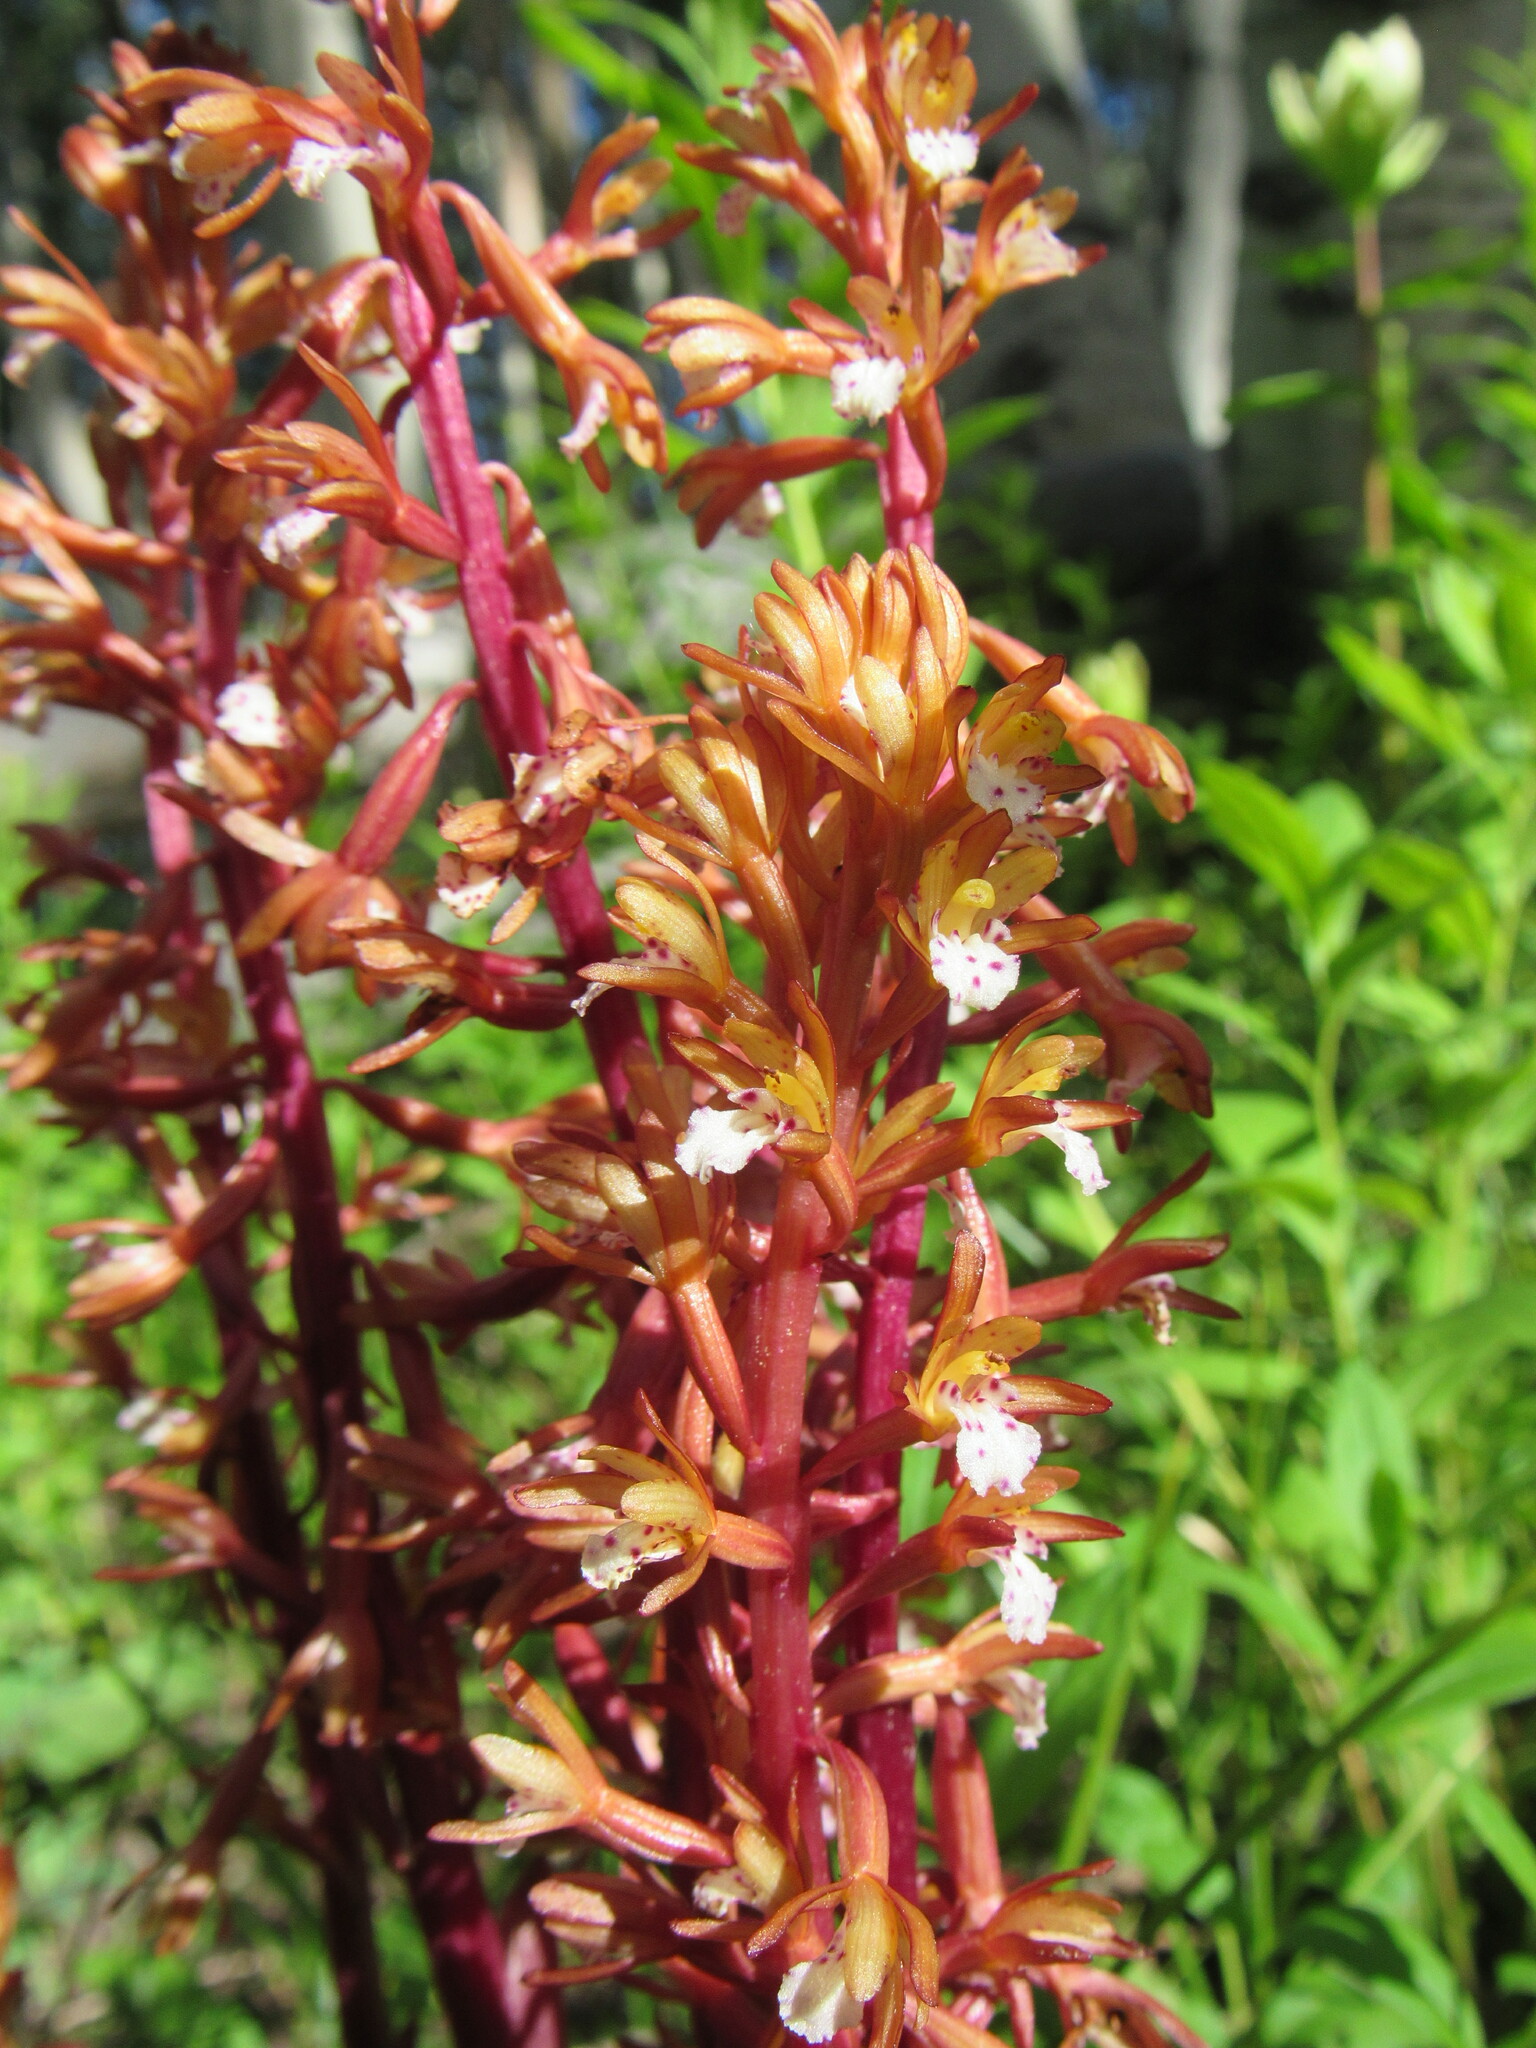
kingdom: Plantae
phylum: Tracheophyta
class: Liliopsida
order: Asparagales
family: Orchidaceae
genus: Corallorhiza
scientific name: Corallorhiza maculata
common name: Spotted coralroot
